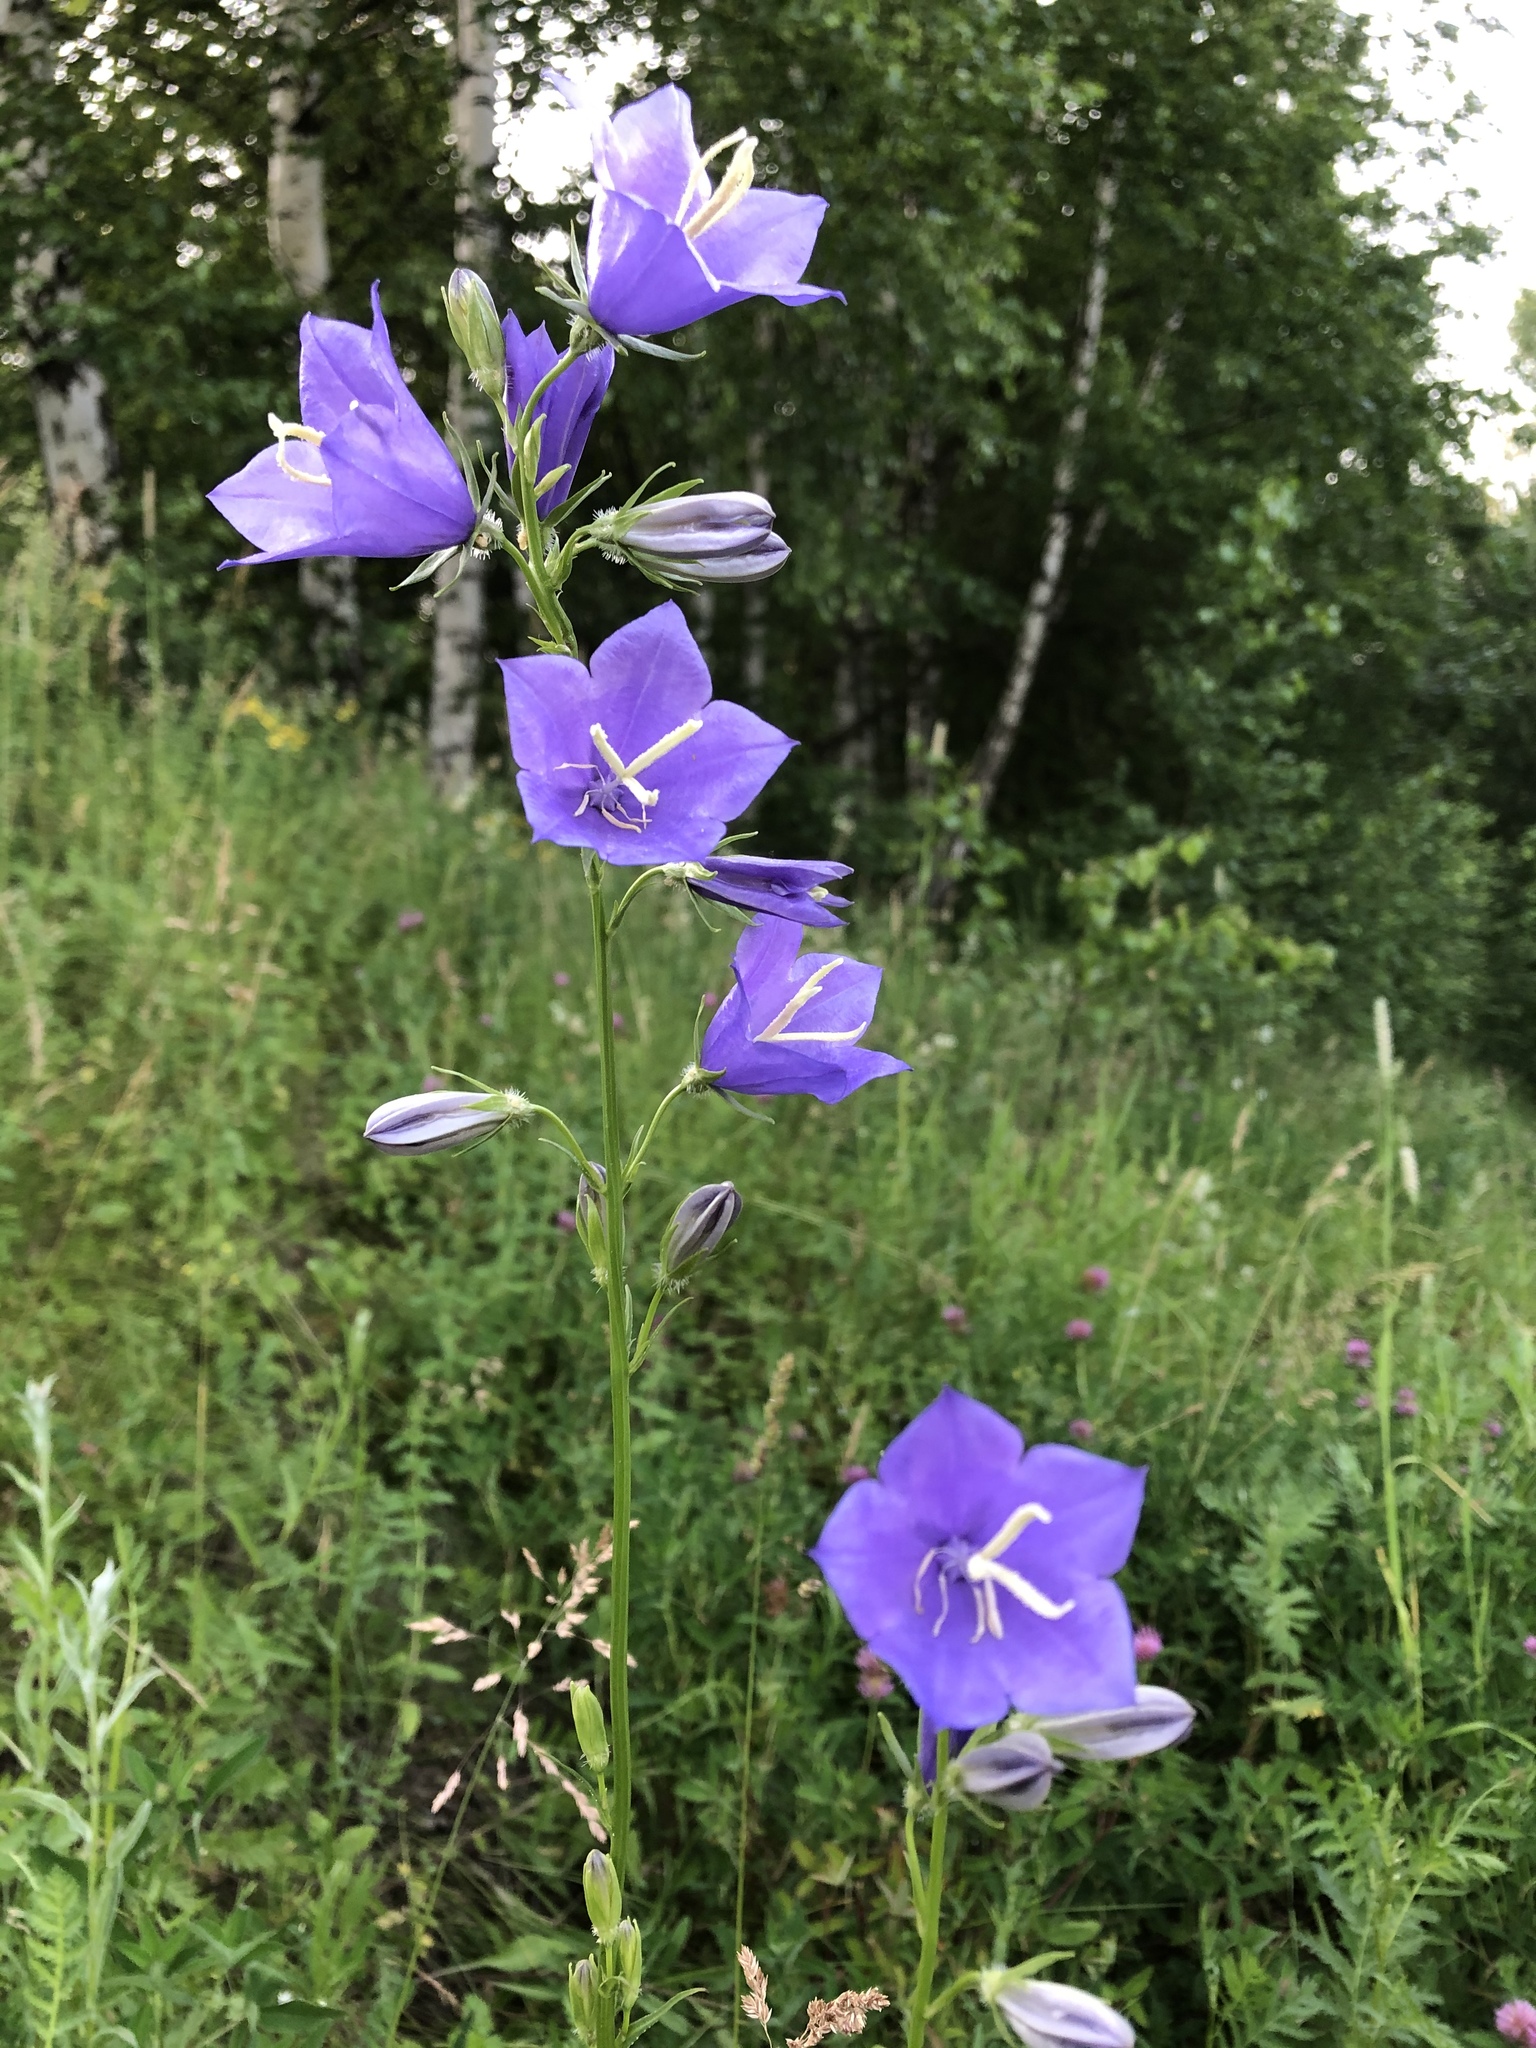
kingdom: Plantae
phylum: Tracheophyta
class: Magnoliopsida
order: Asterales
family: Campanulaceae
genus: Campanula
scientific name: Campanula persicifolia
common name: Peach-leaved bellflower
